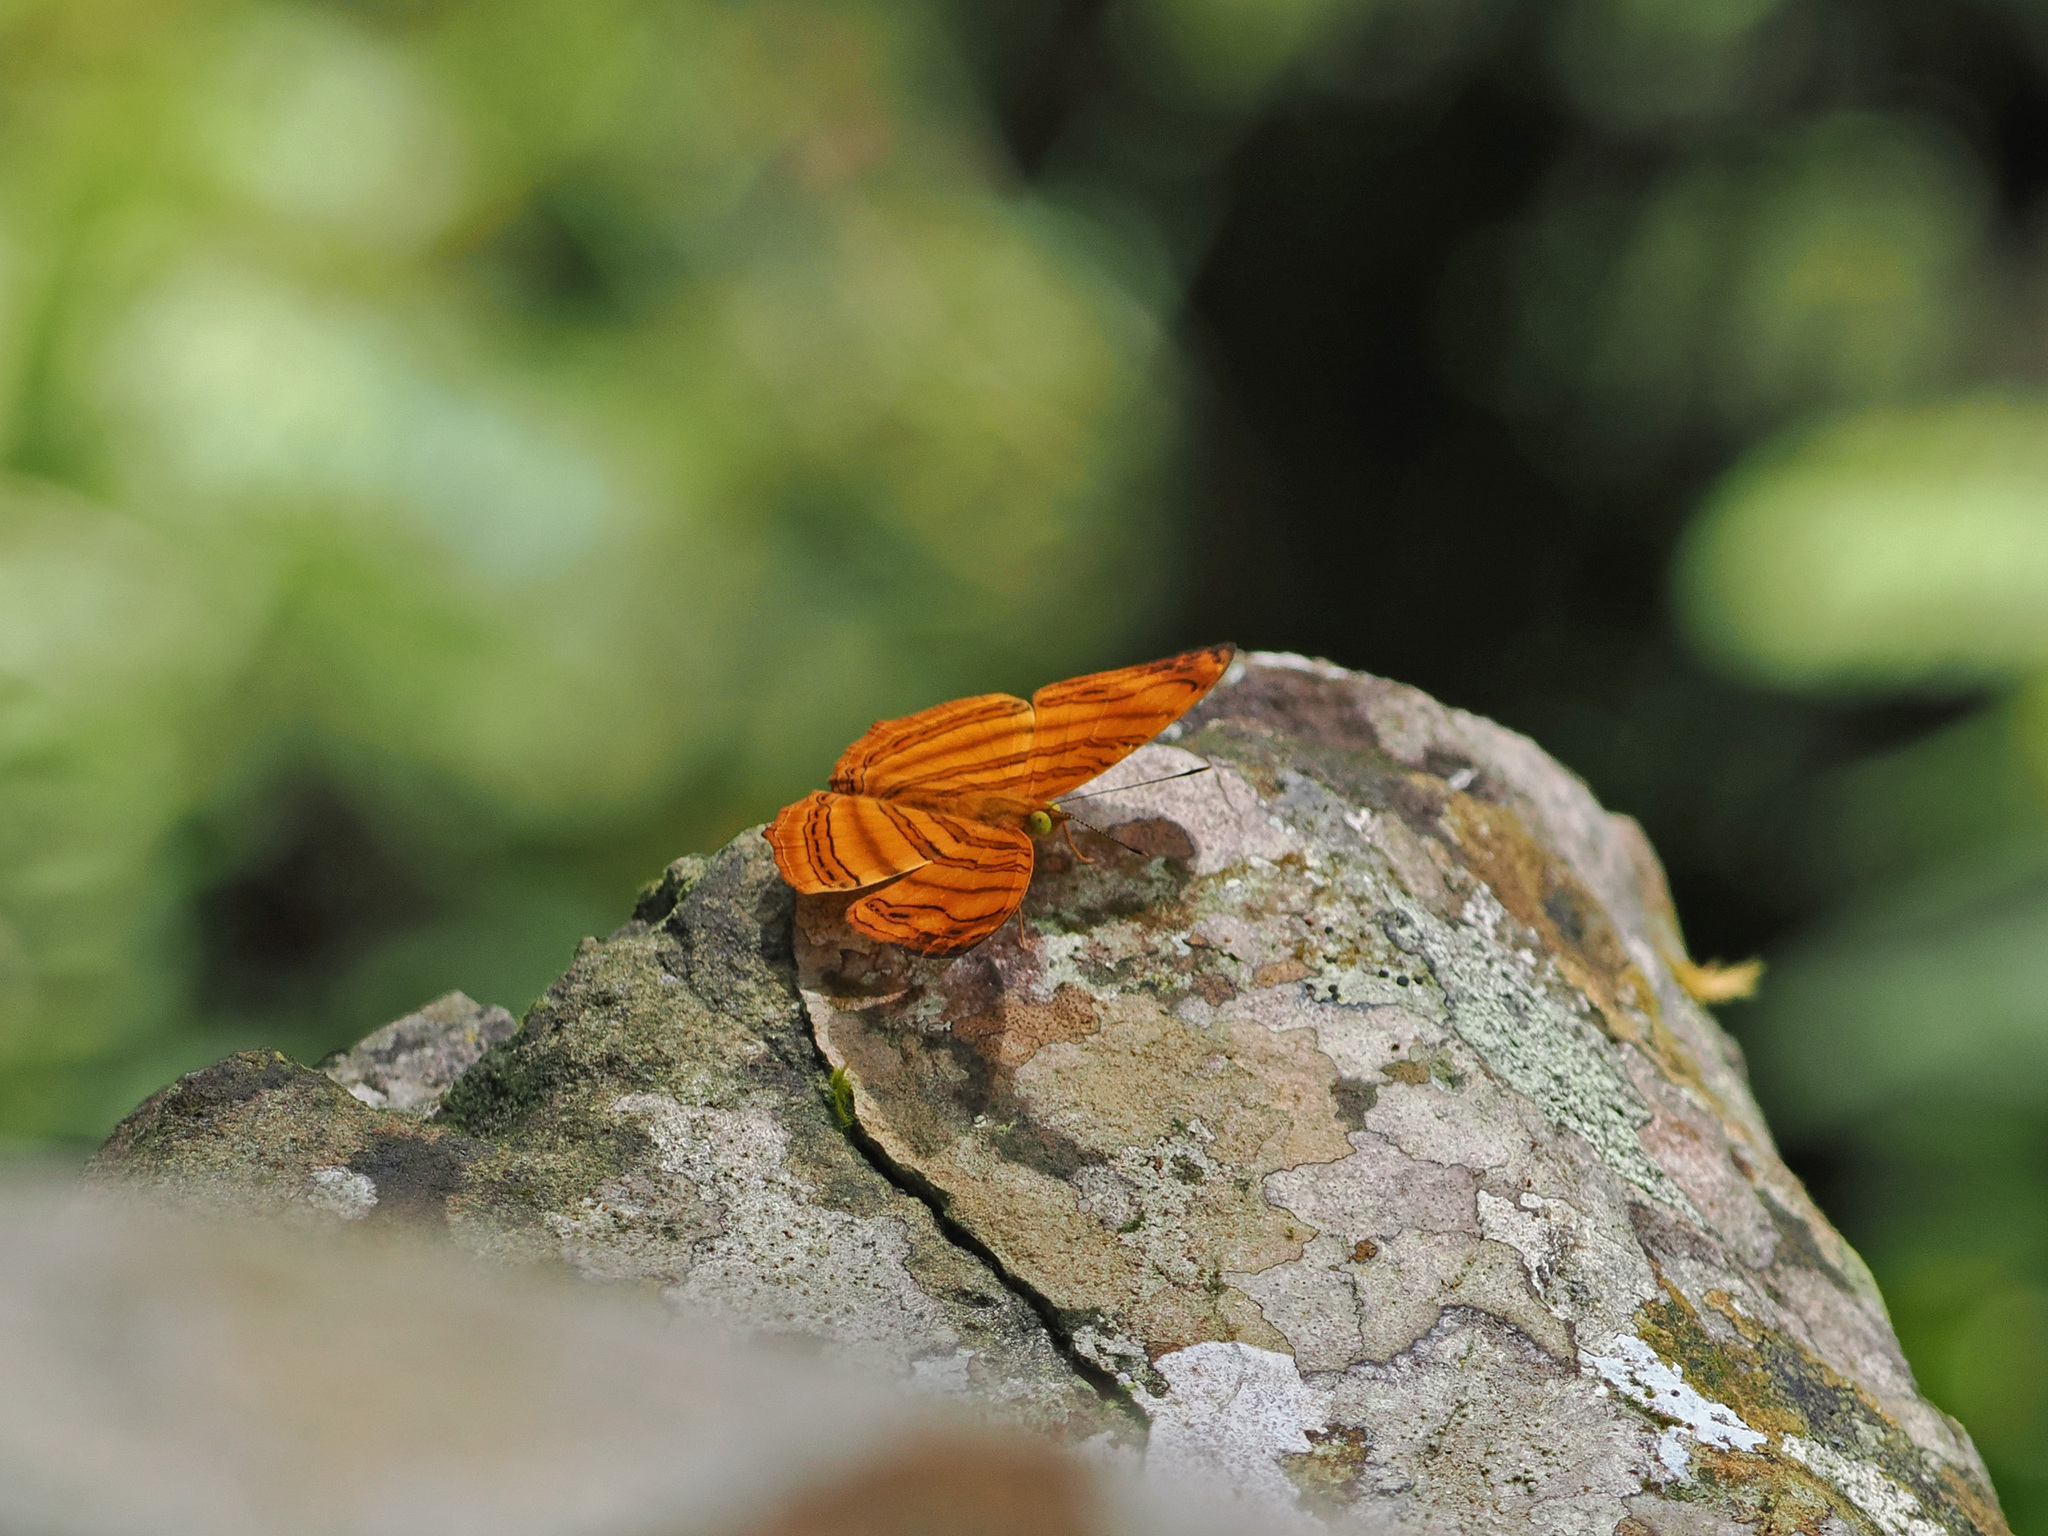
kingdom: Animalia
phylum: Arthropoda
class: Insecta
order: Lepidoptera
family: Nymphalidae
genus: Chersonesia
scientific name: Chersonesia rahria
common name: Wavy maplet
